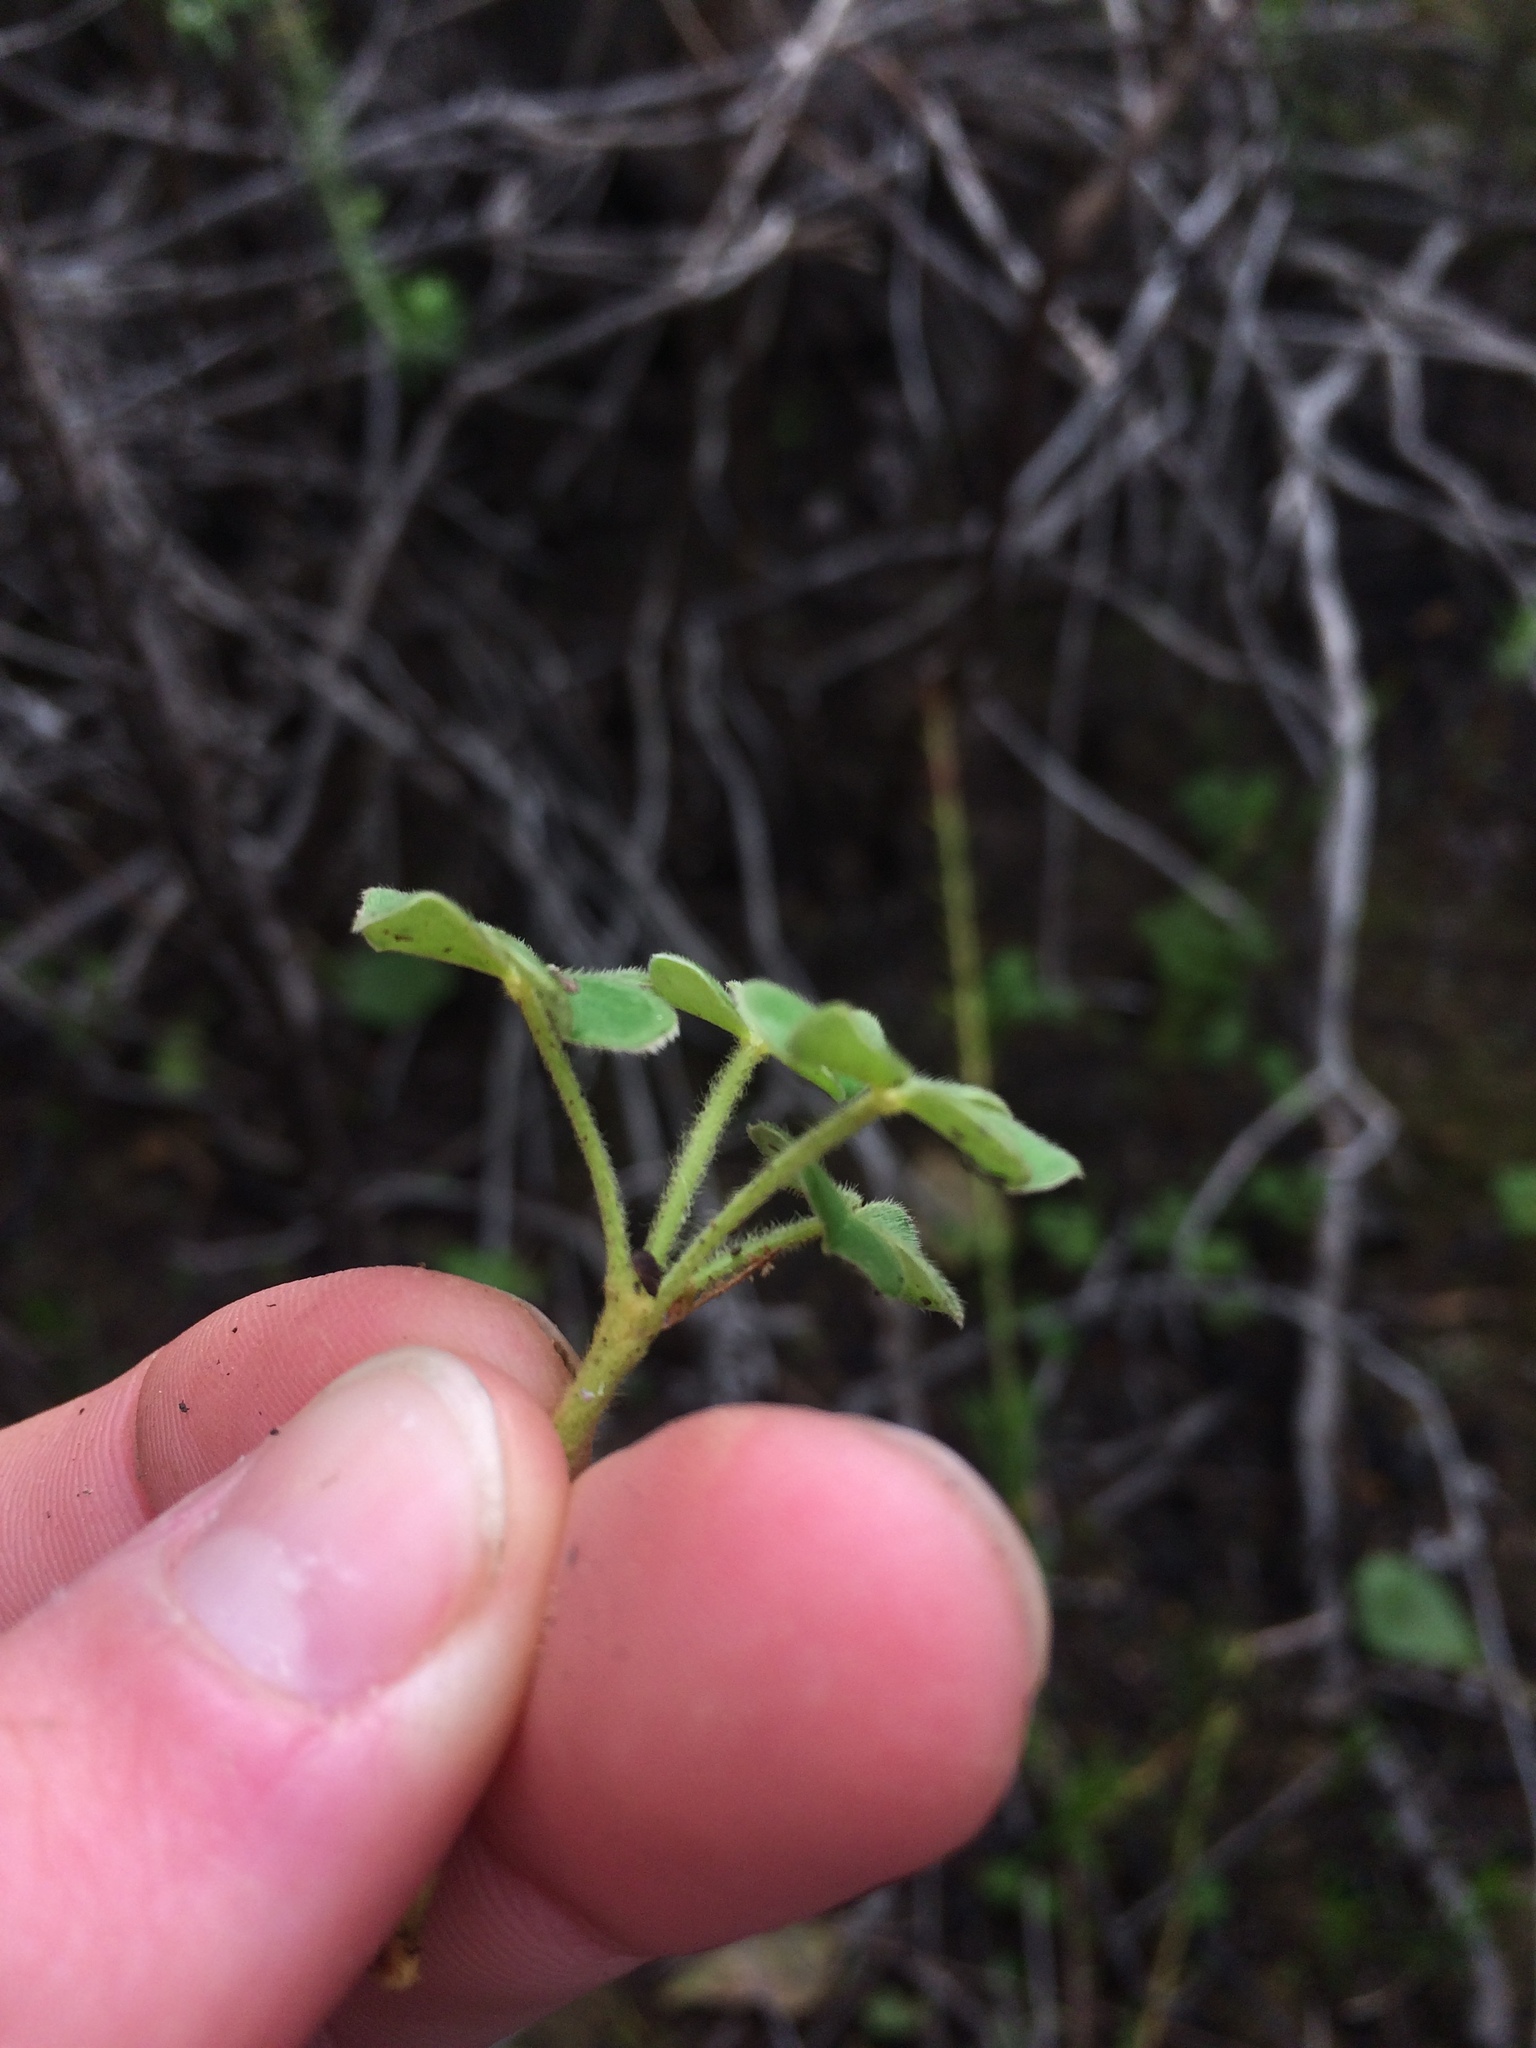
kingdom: Plantae
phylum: Tracheophyta
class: Magnoliopsida
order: Oxalidales
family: Oxalidaceae
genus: Oxalis
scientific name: Oxalis lanata
